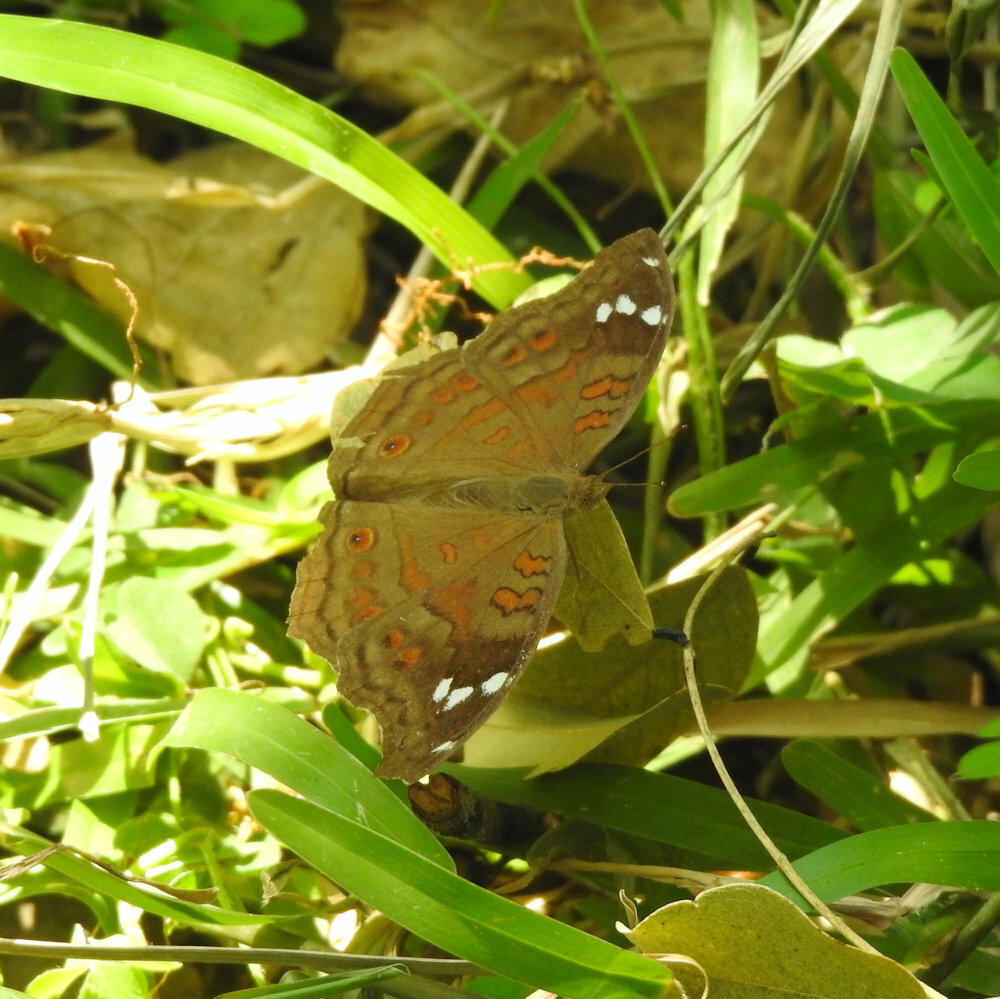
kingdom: Animalia
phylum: Arthropoda
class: Insecta
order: Lepidoptera
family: Nymphalidae
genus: Junonia
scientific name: Junonia natalica
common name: Brown pansy
